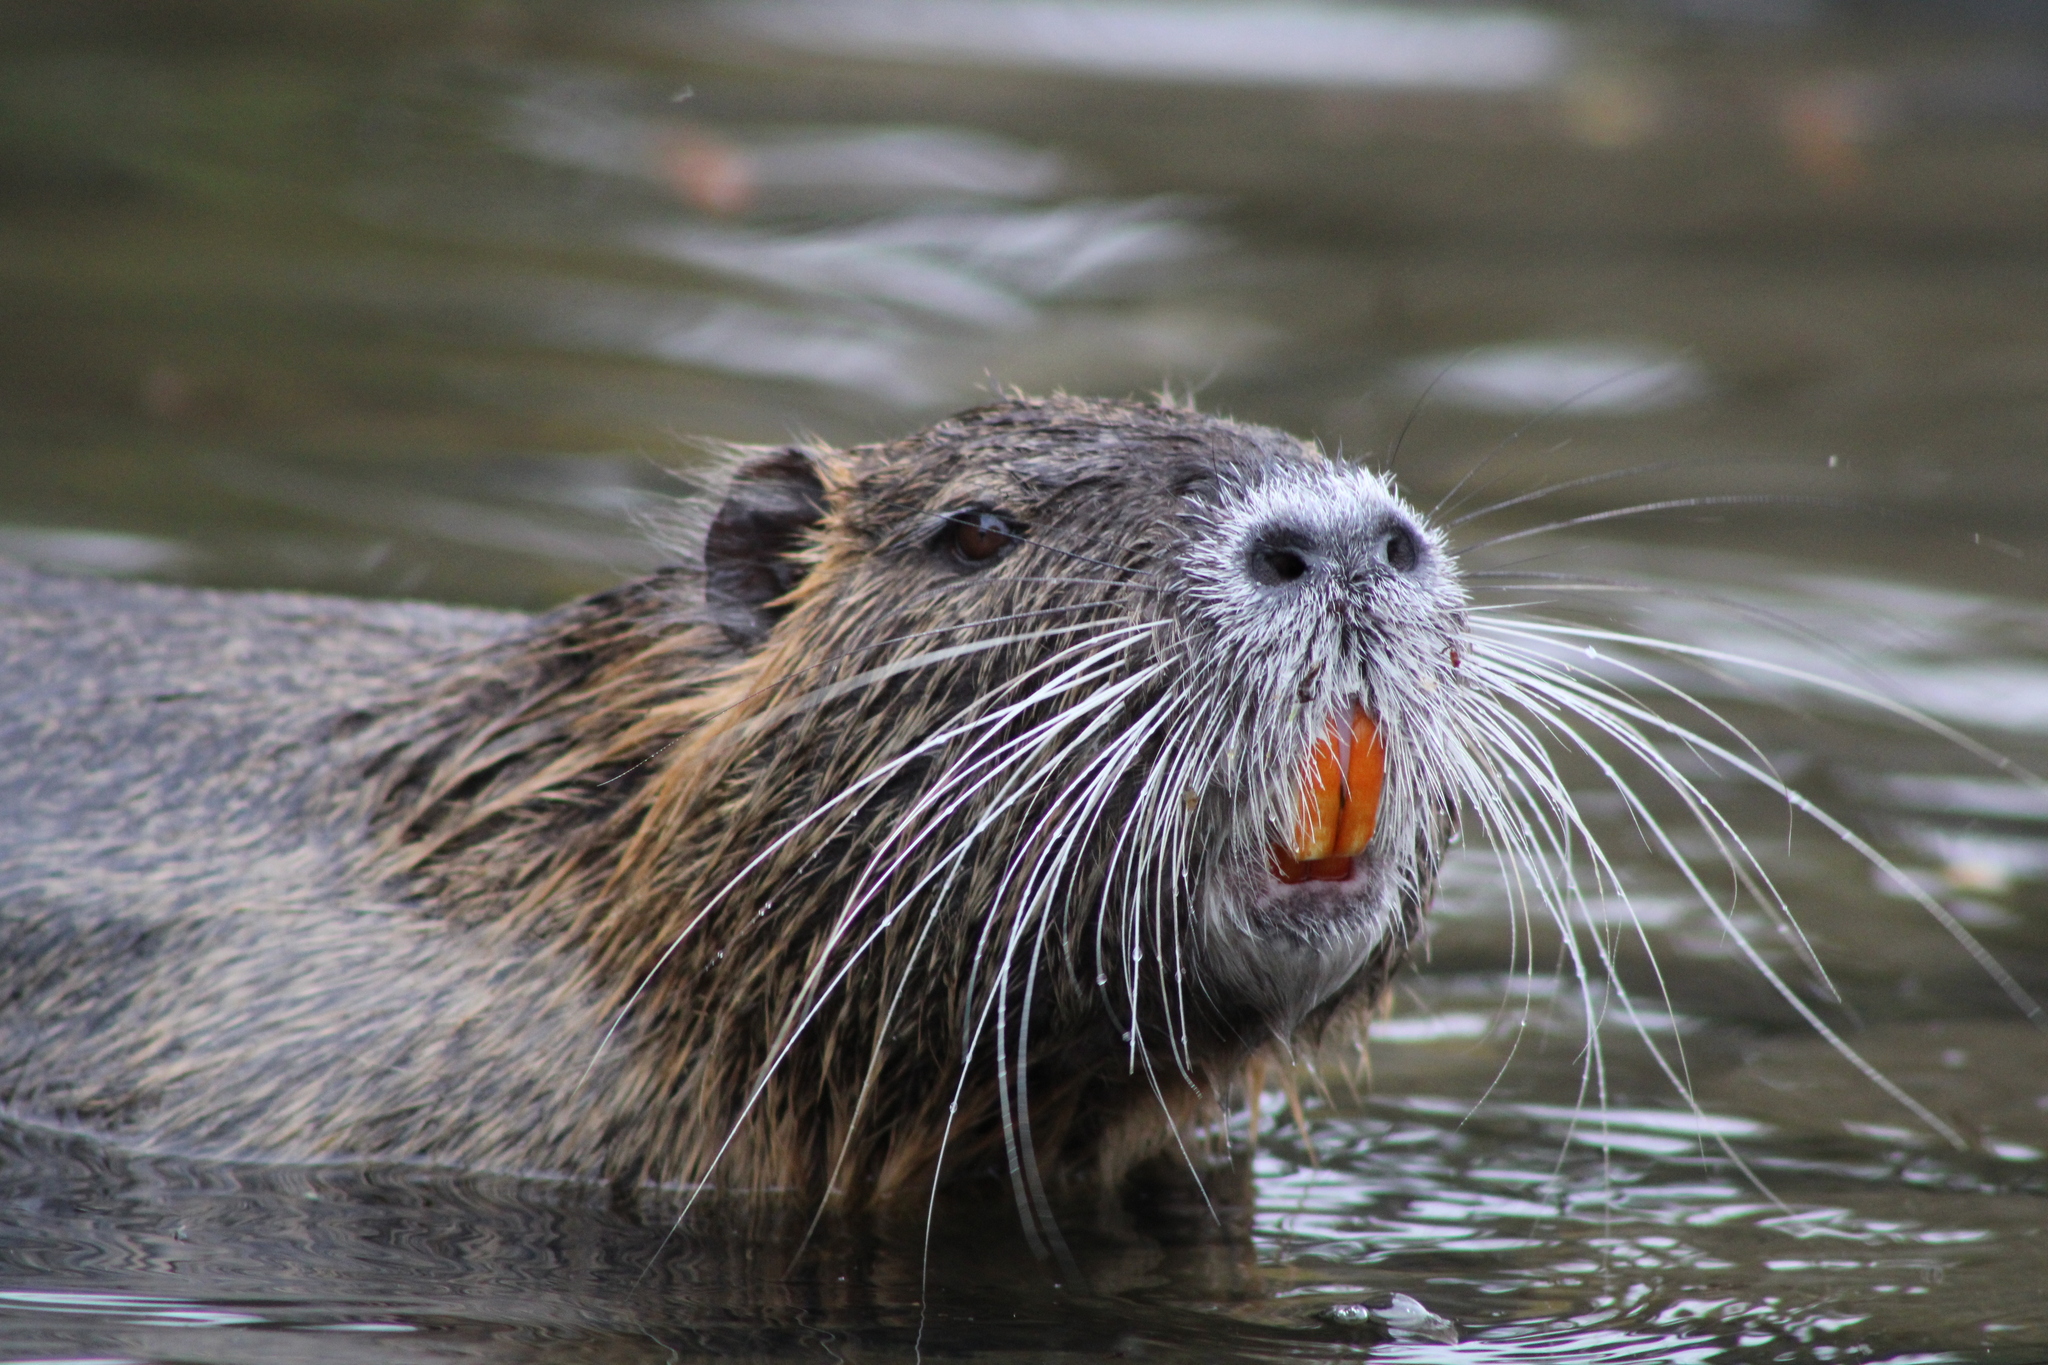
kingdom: Animalia
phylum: Chordata
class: Mammalia
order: Rodentia
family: Myocastoridae
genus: Myocastor
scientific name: Myocastor coypus
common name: Coypu
